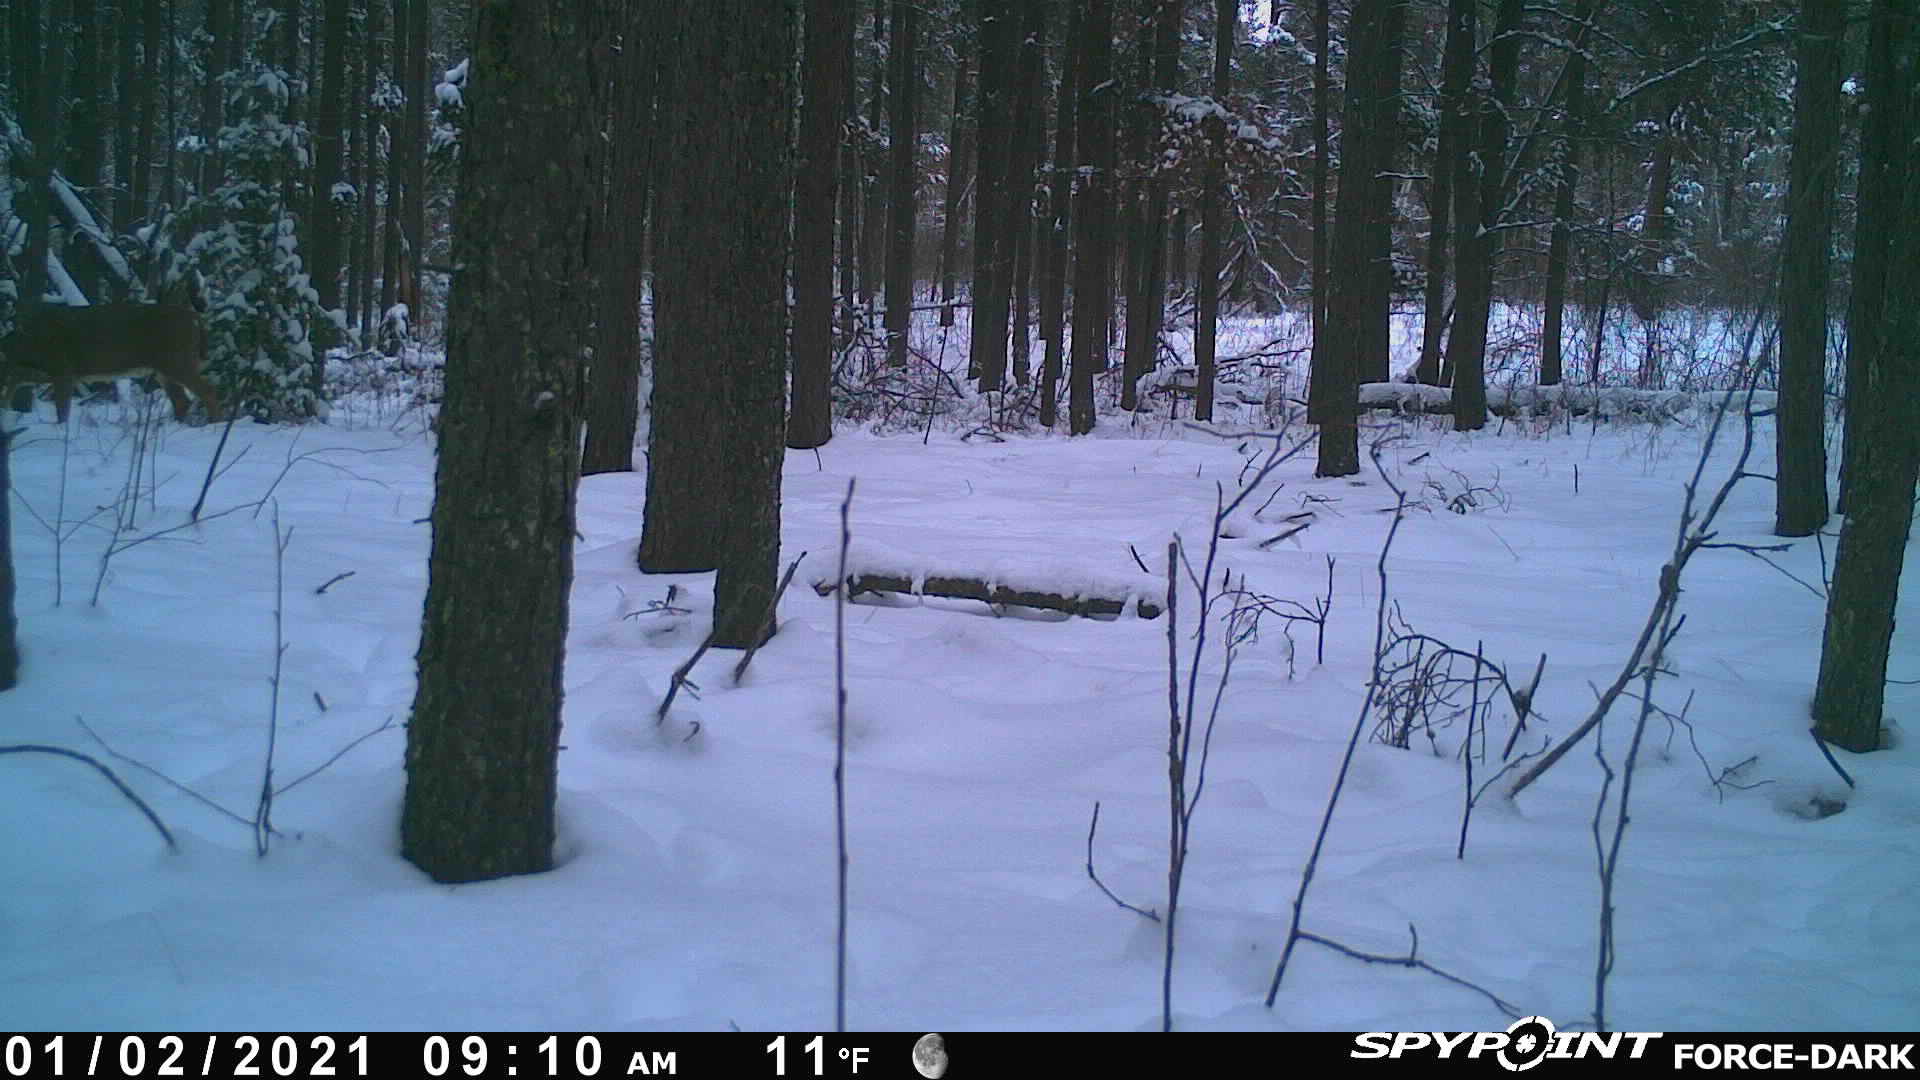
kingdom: Animalia
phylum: Chordata
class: Mammalia
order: Artiodactyla
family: Cervidae
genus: Odocoileus
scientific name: Odocoileus virginianus
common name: White-tailed deer
